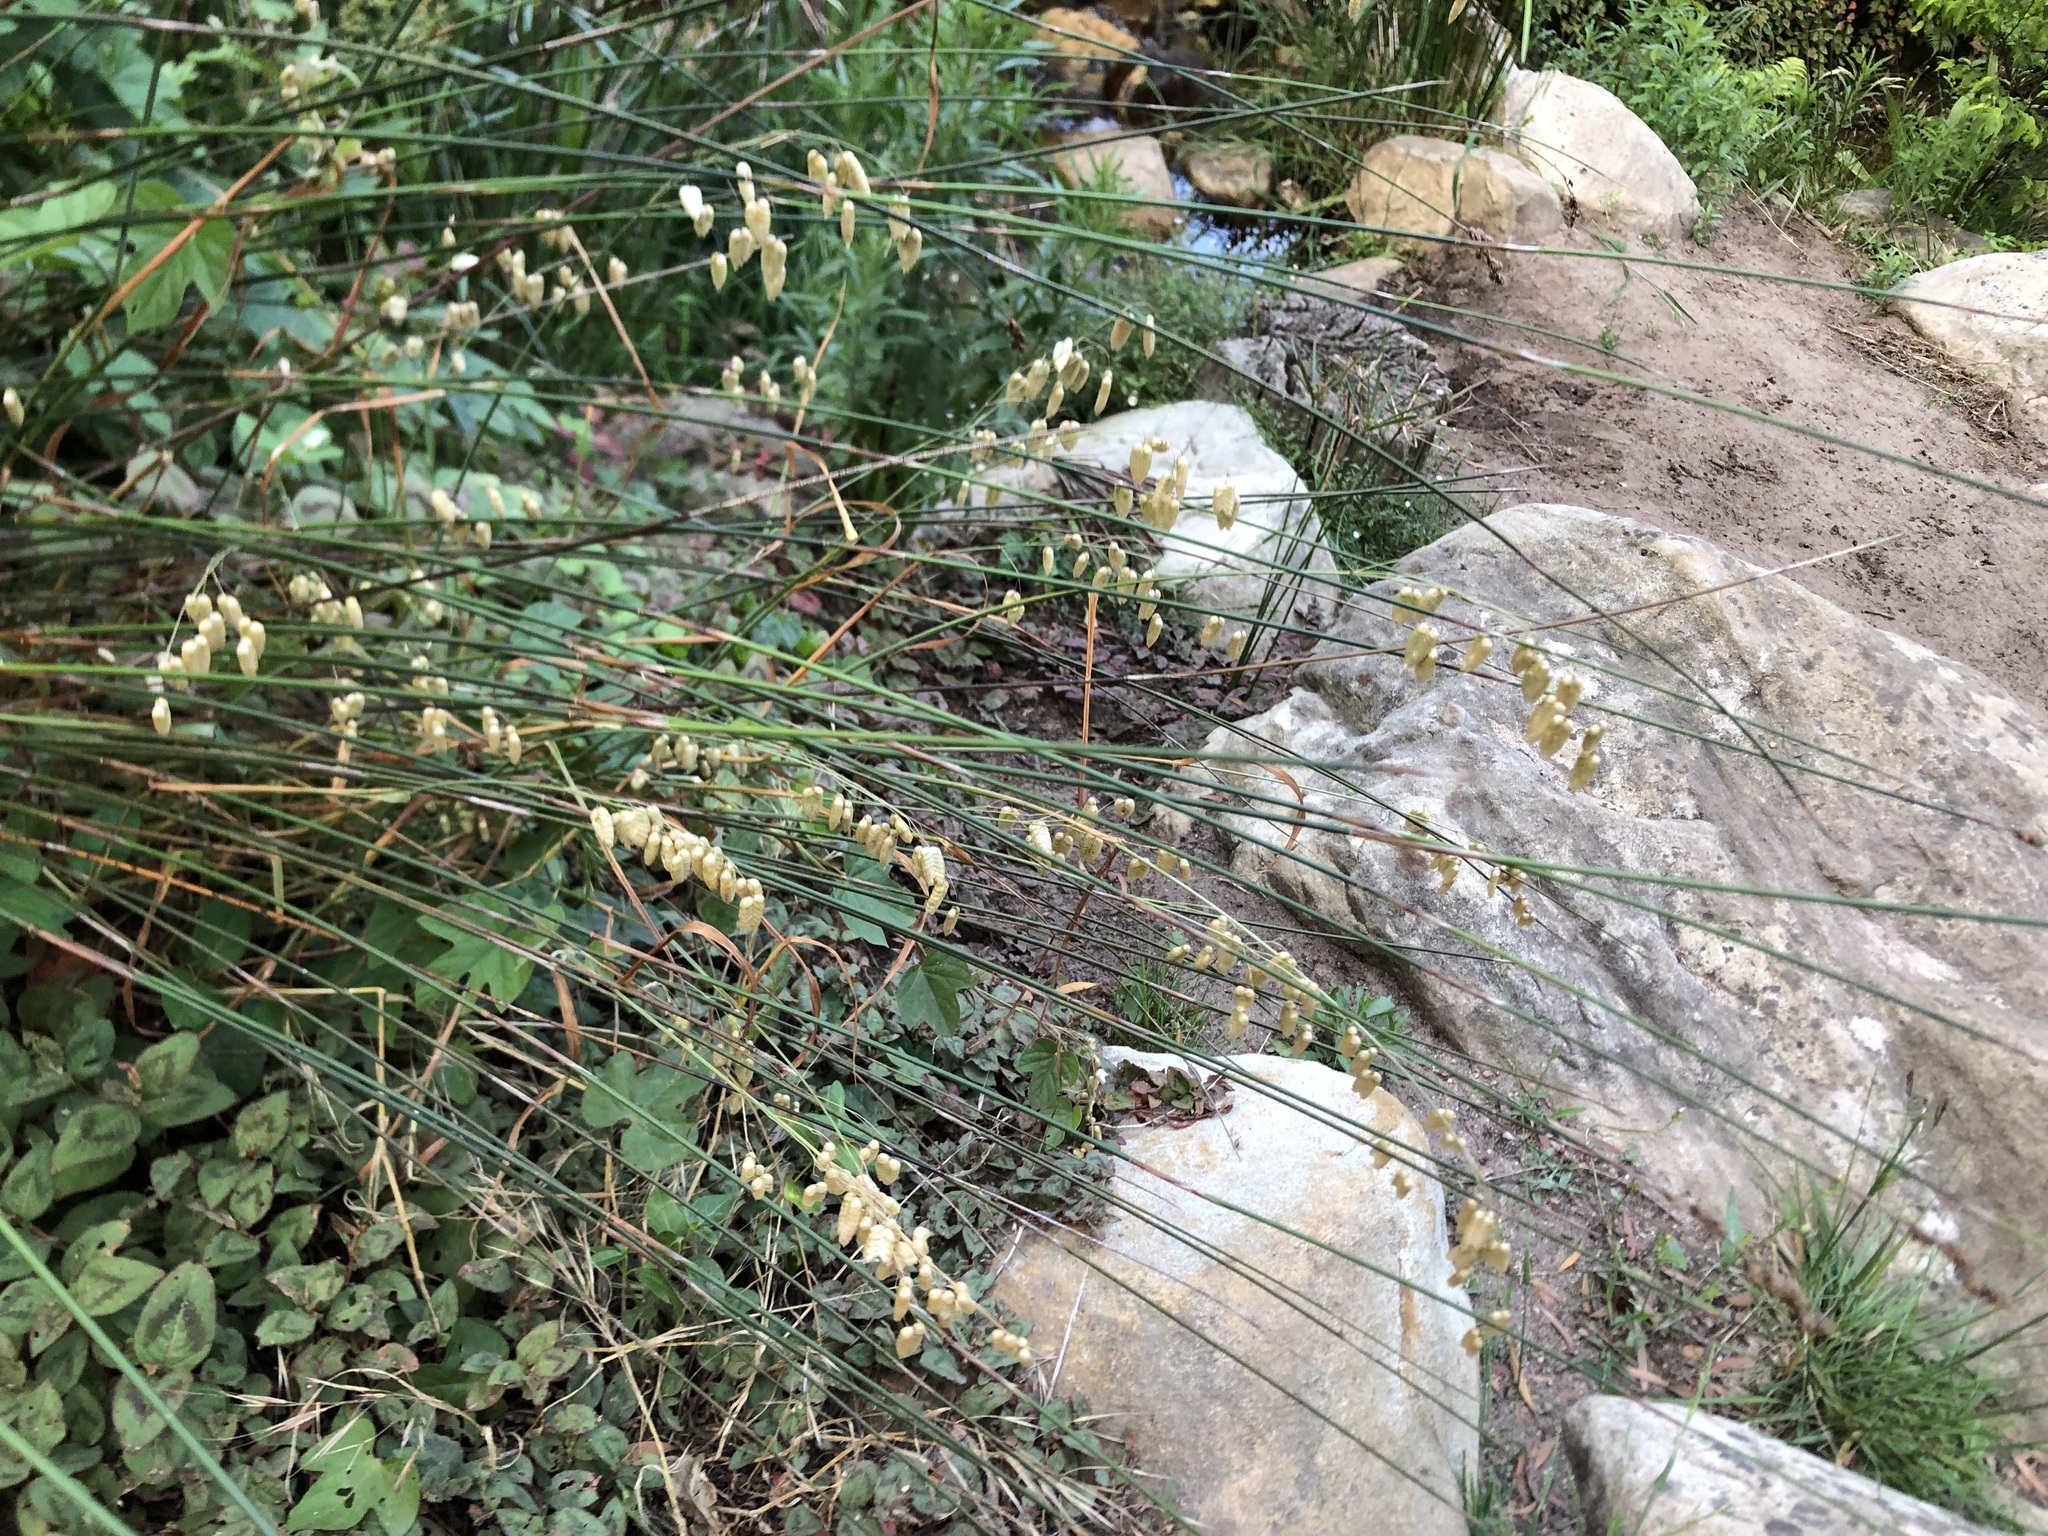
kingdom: Plantae
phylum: Tracheophyta
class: Liliopsida
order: Poales
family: Poaceae
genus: Briza
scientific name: Briza maxima
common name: Big quakinggrass
